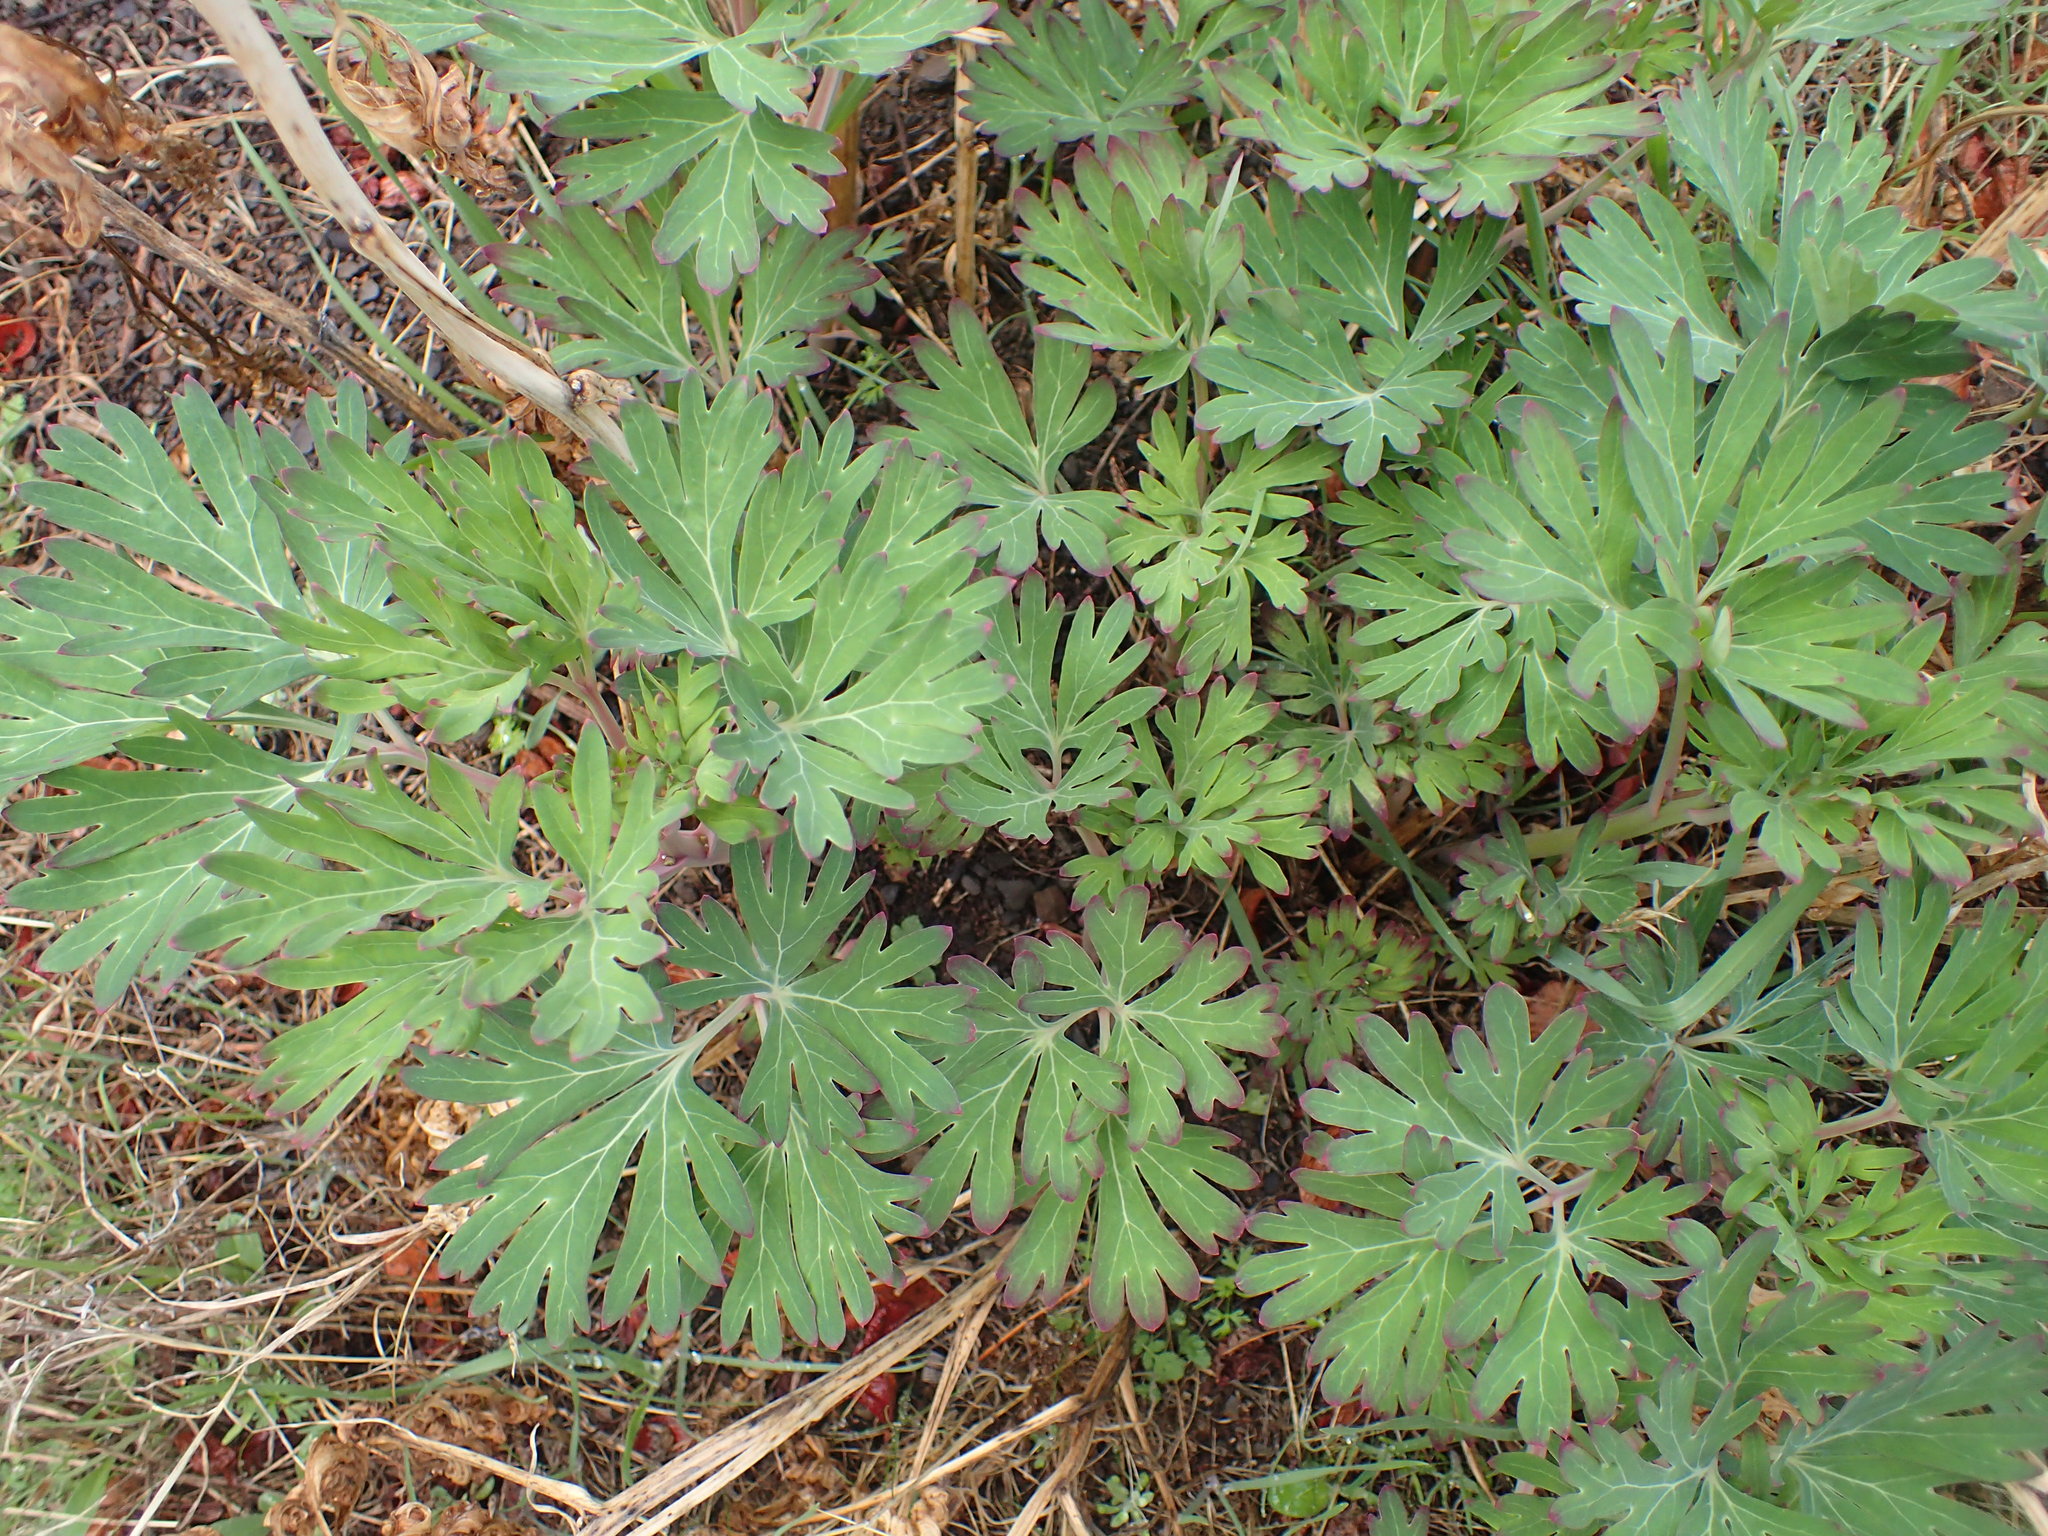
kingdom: Plantae
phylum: Tracheophyta
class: Magnoliopsida
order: Saxifragales
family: Paeoniaceae
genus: Paeonia
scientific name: Paeonia californica
